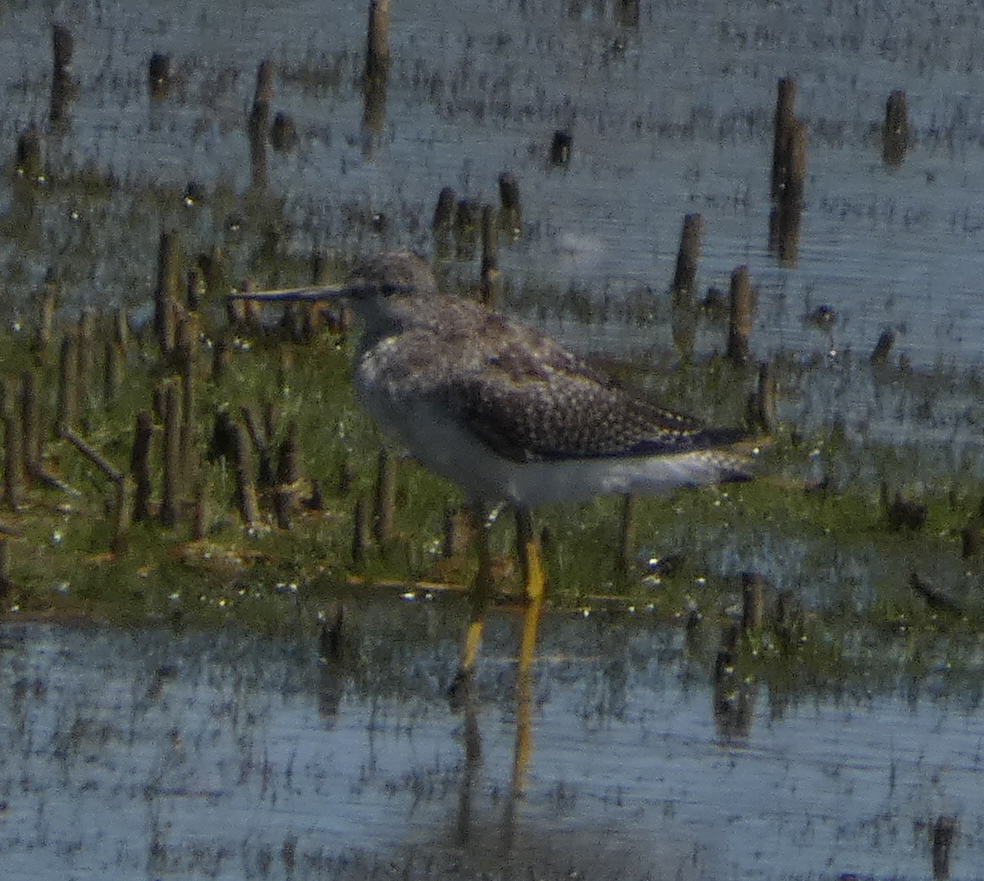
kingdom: Animalia
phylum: Chordata
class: Aves
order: Charadriiformes
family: Scolopacidae
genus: Tringa
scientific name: Tringa melanoleuca
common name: Greater yellowlegs
